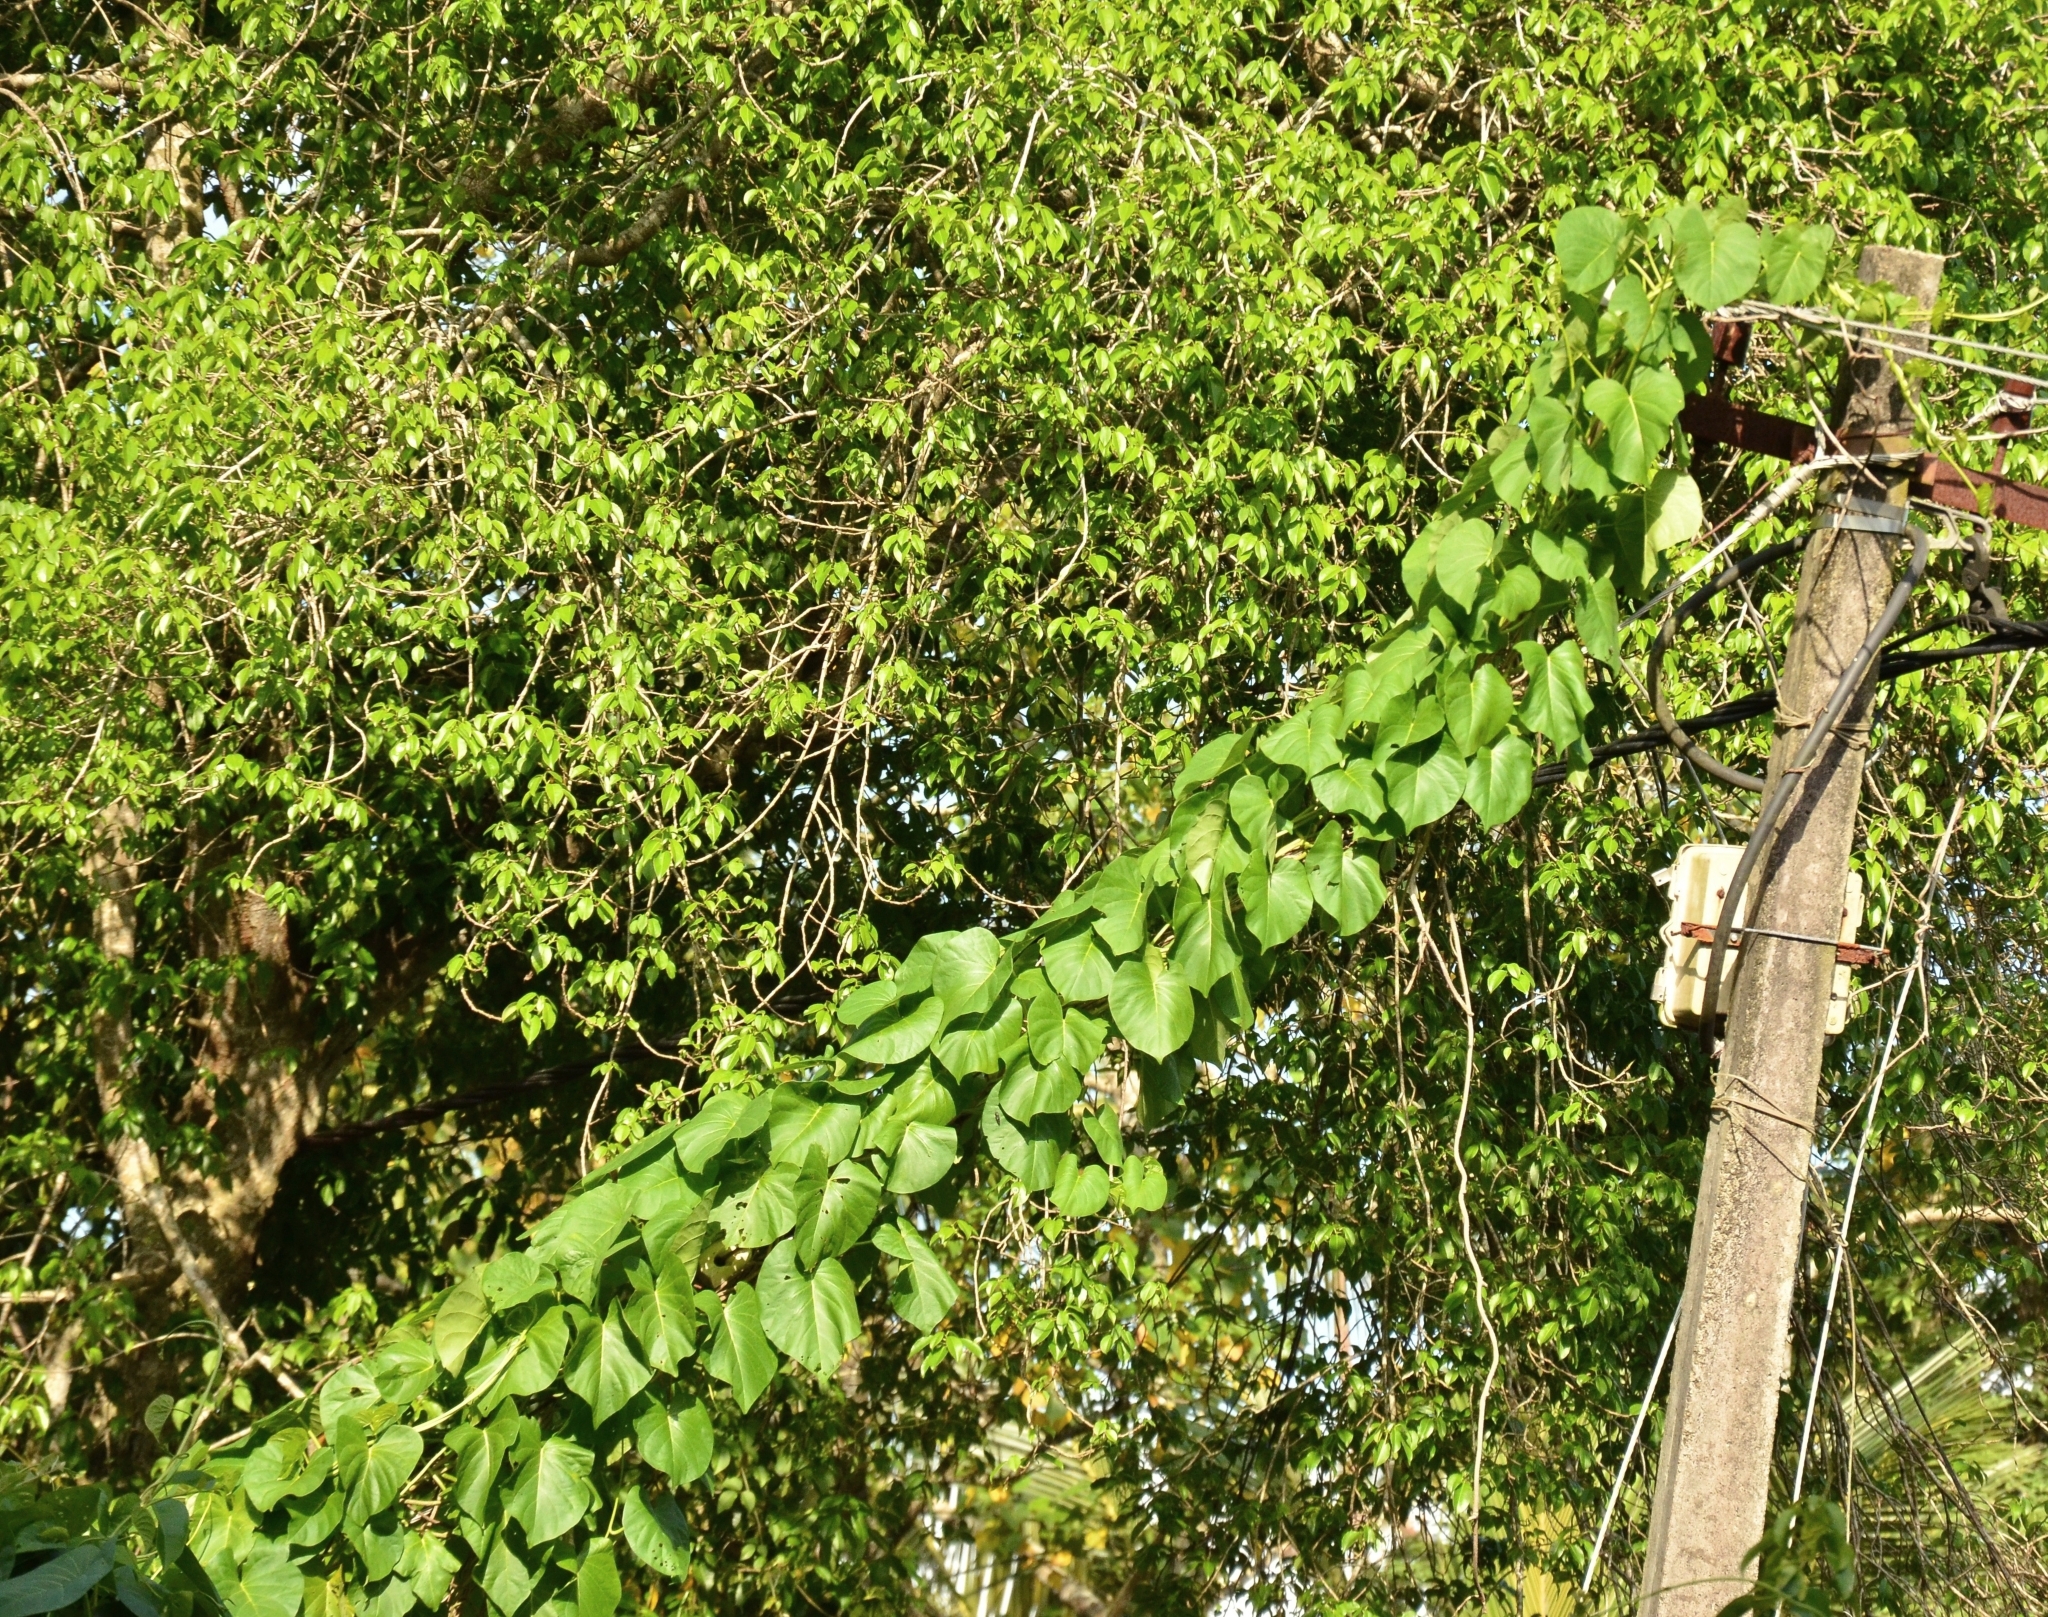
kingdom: Plantae
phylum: Tracheophyta
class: Magnoliopsida
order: Solanales
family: Convolvulaceae
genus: Ipomoea
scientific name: Ipomoea violacea
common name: Beach moonflower
